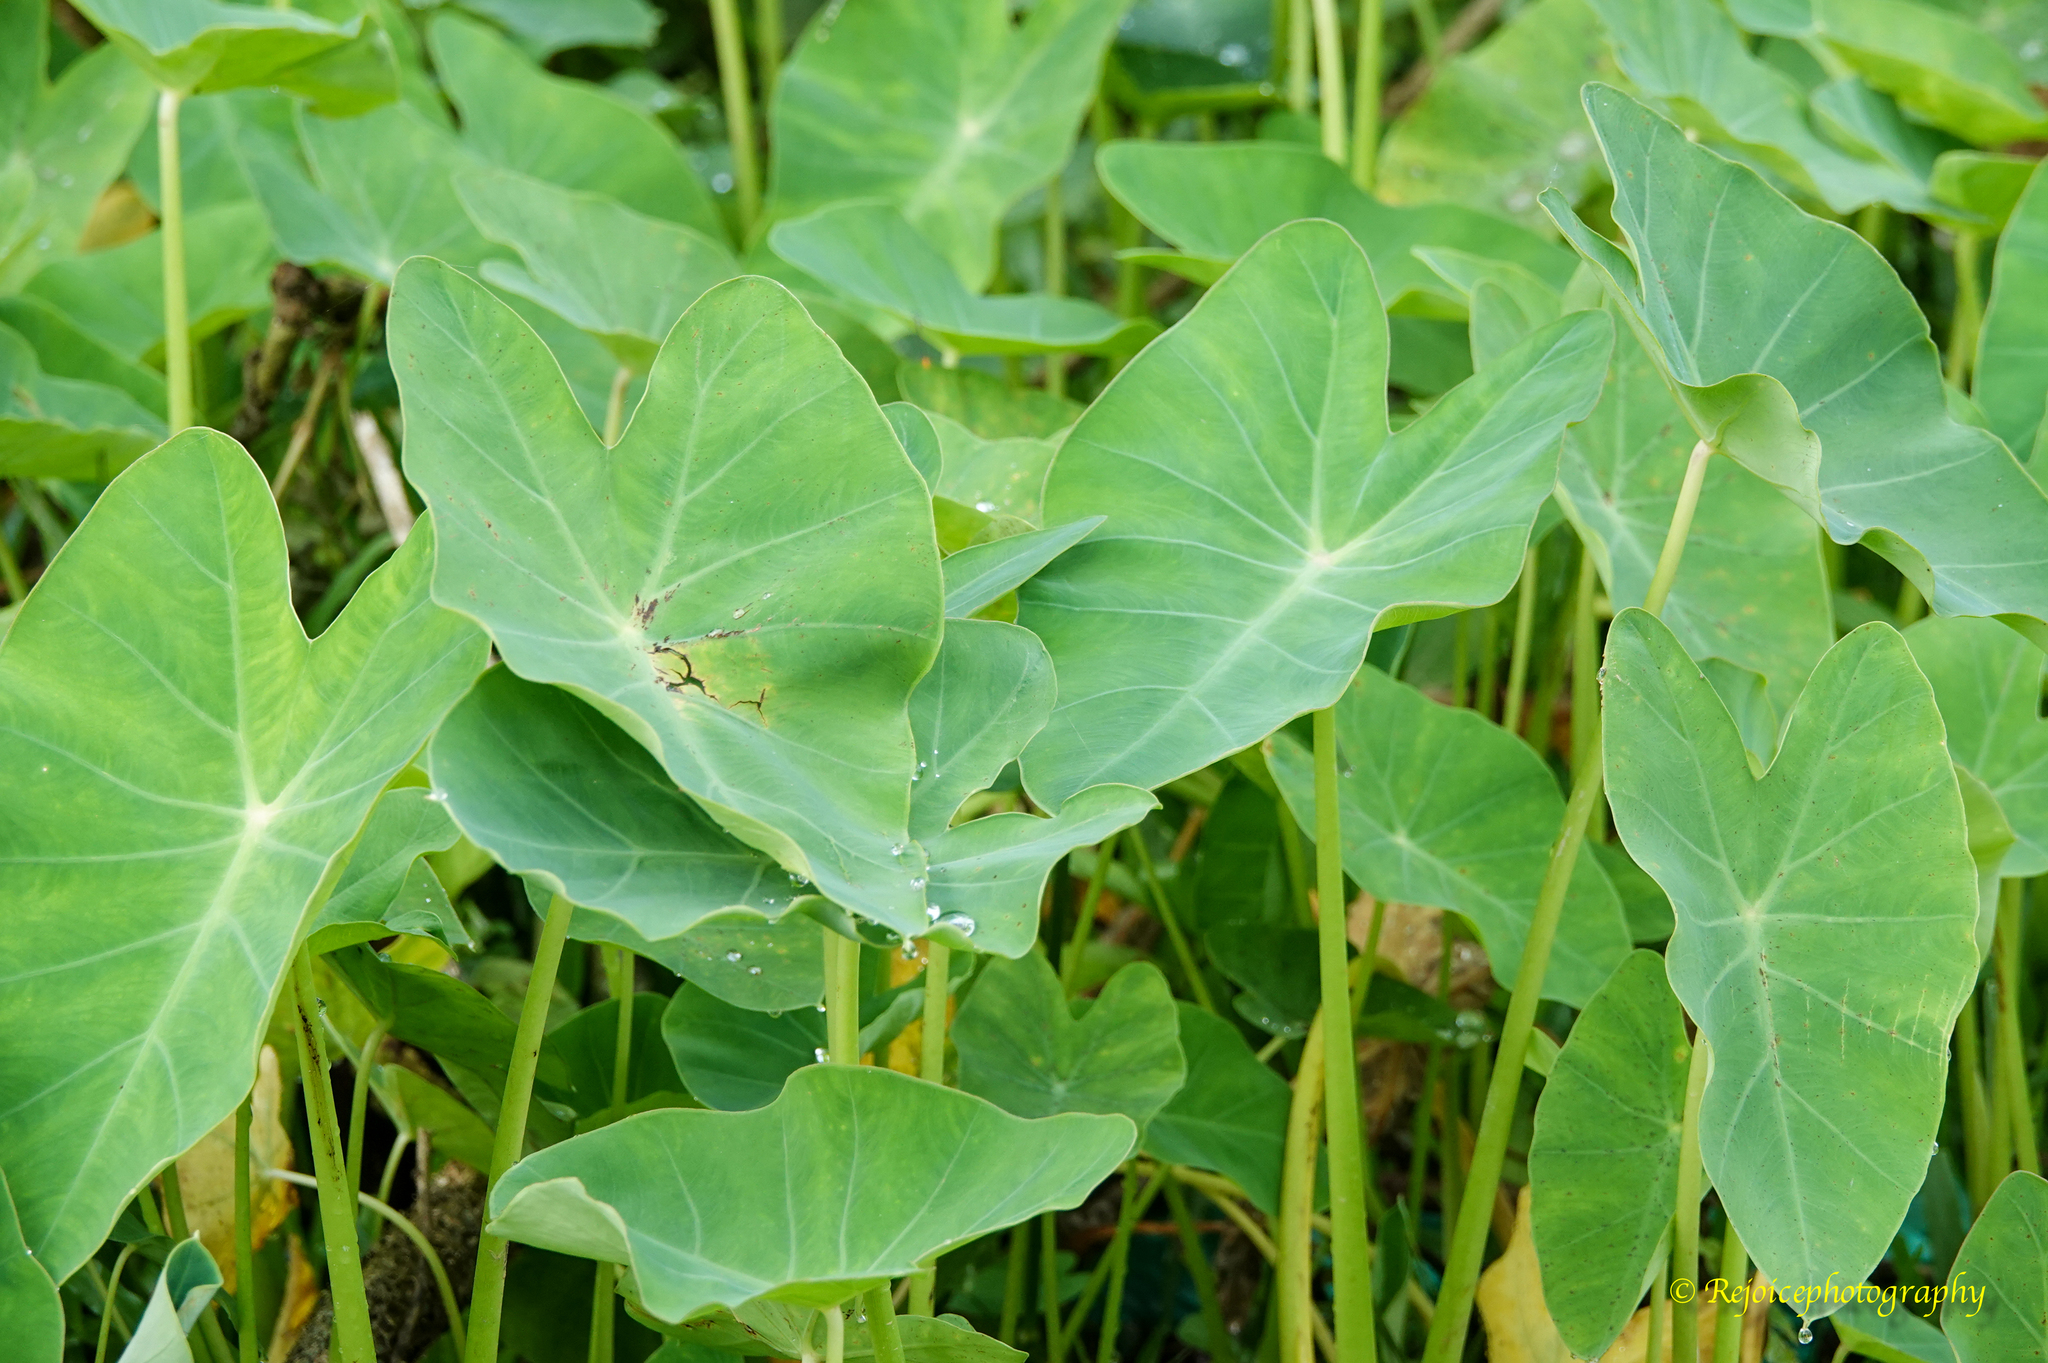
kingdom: Plantae
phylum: Tracheophyta
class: Liliopsida
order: Alismatales
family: Araceae
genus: Colocasia
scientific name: Colocasia esculenta
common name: Taro
